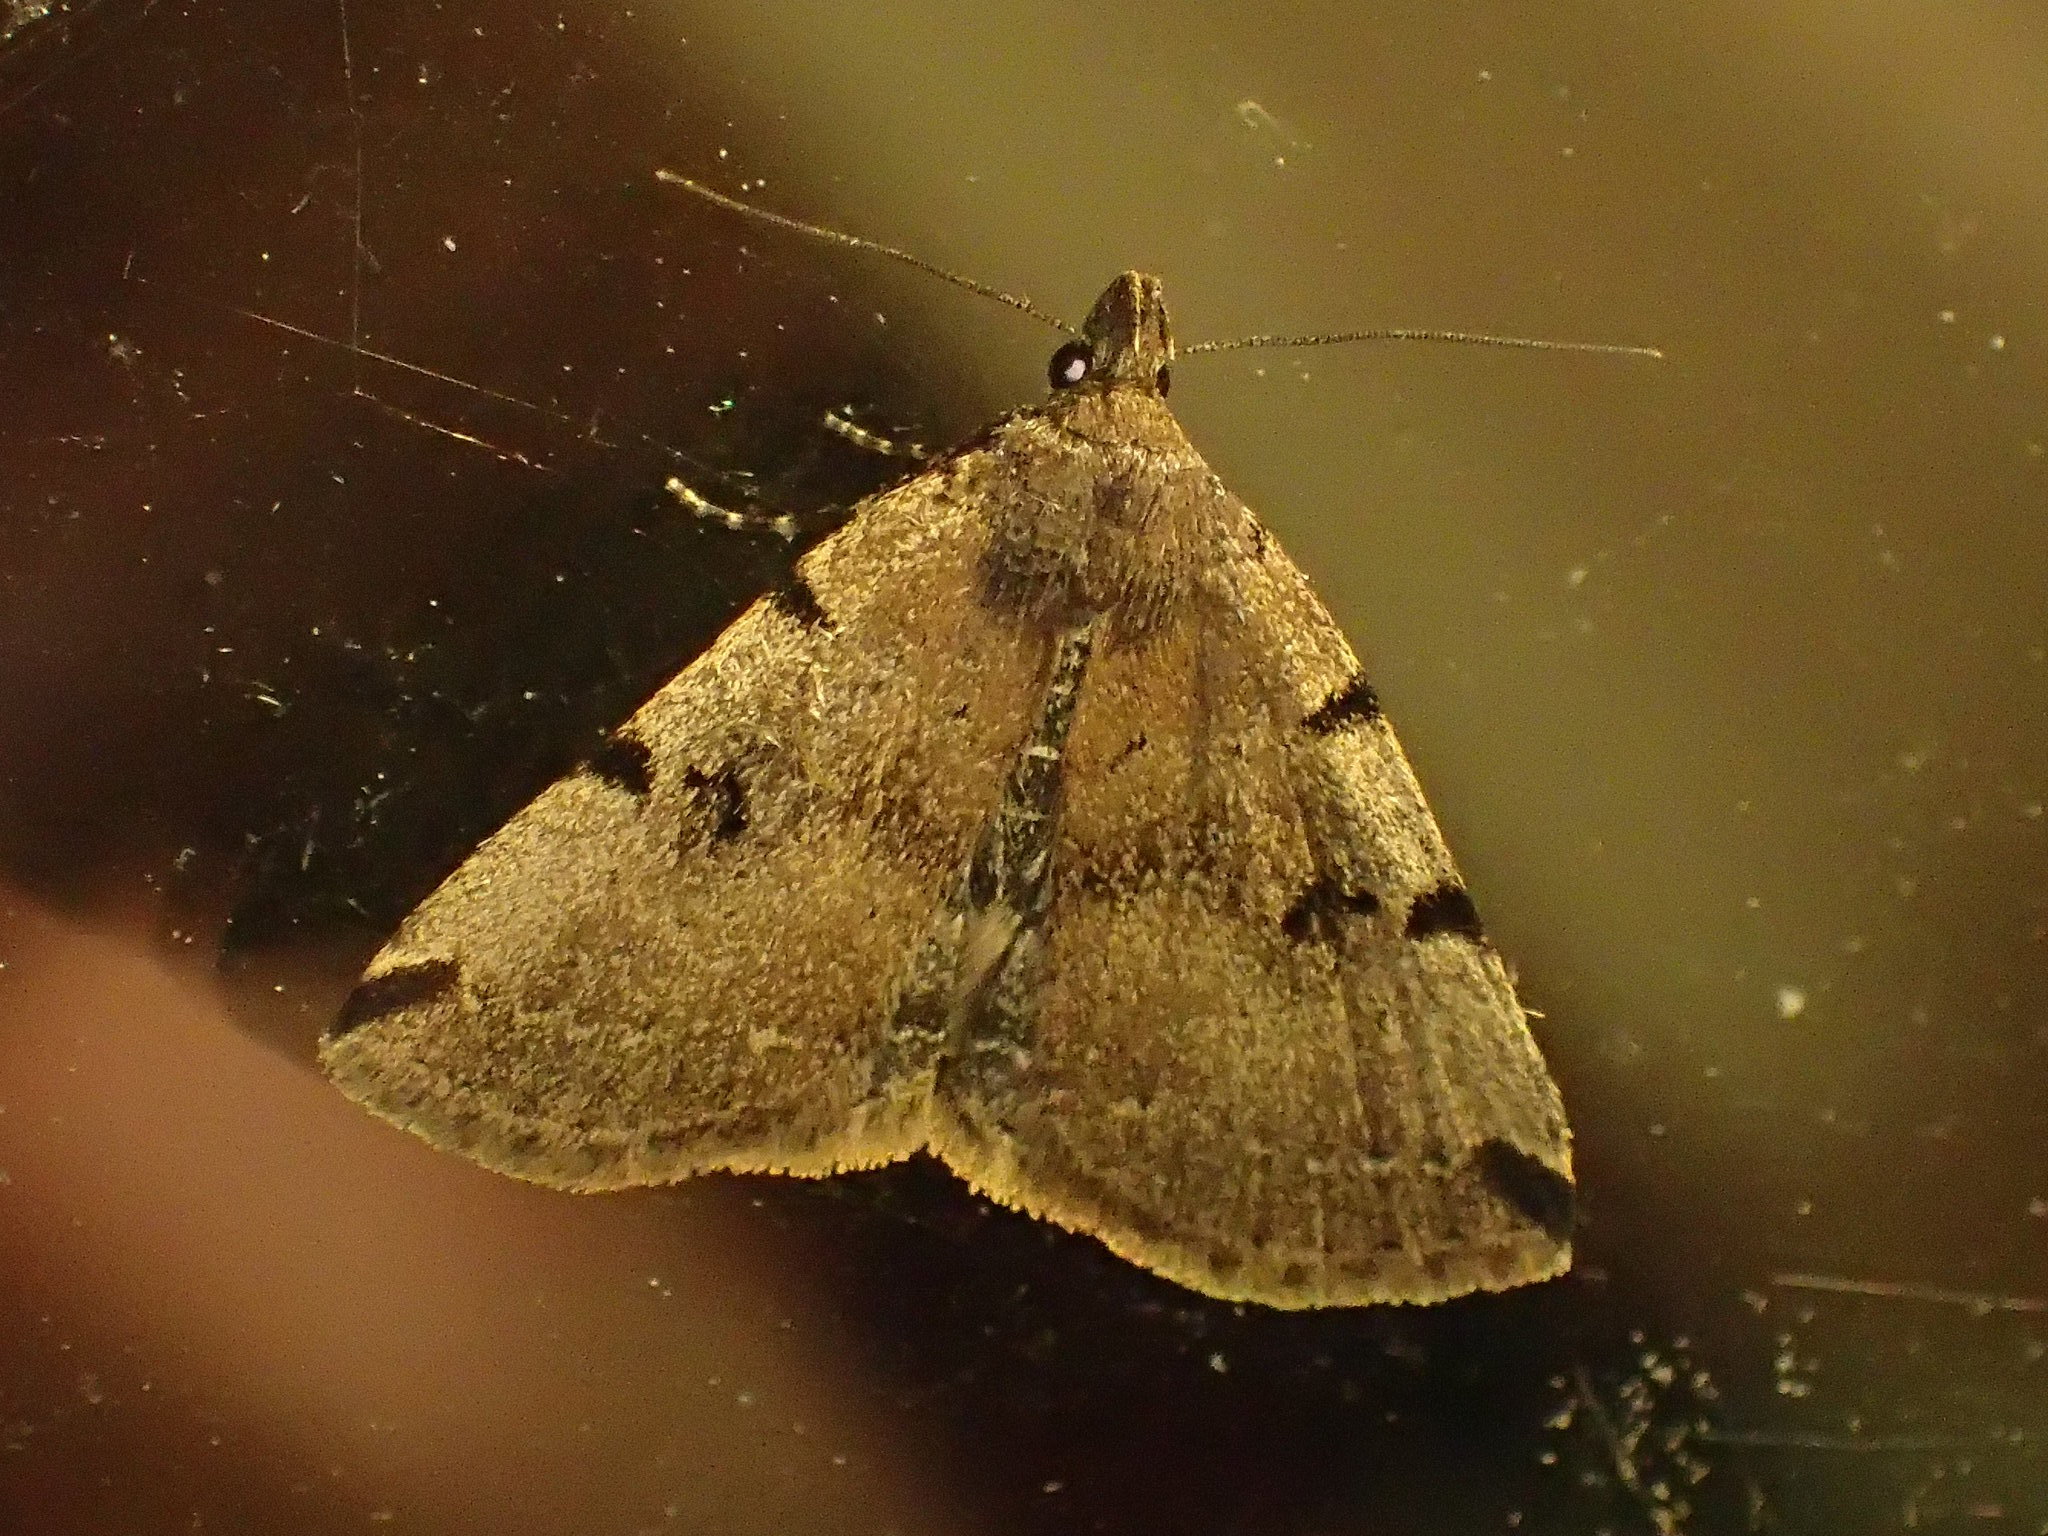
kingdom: Animalia
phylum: Arthropoda
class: Insecta
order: Lepidoptera
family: Erebidae
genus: Zanclognatha
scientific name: Zanclognatha lituralis
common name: Lettered fan-foot
